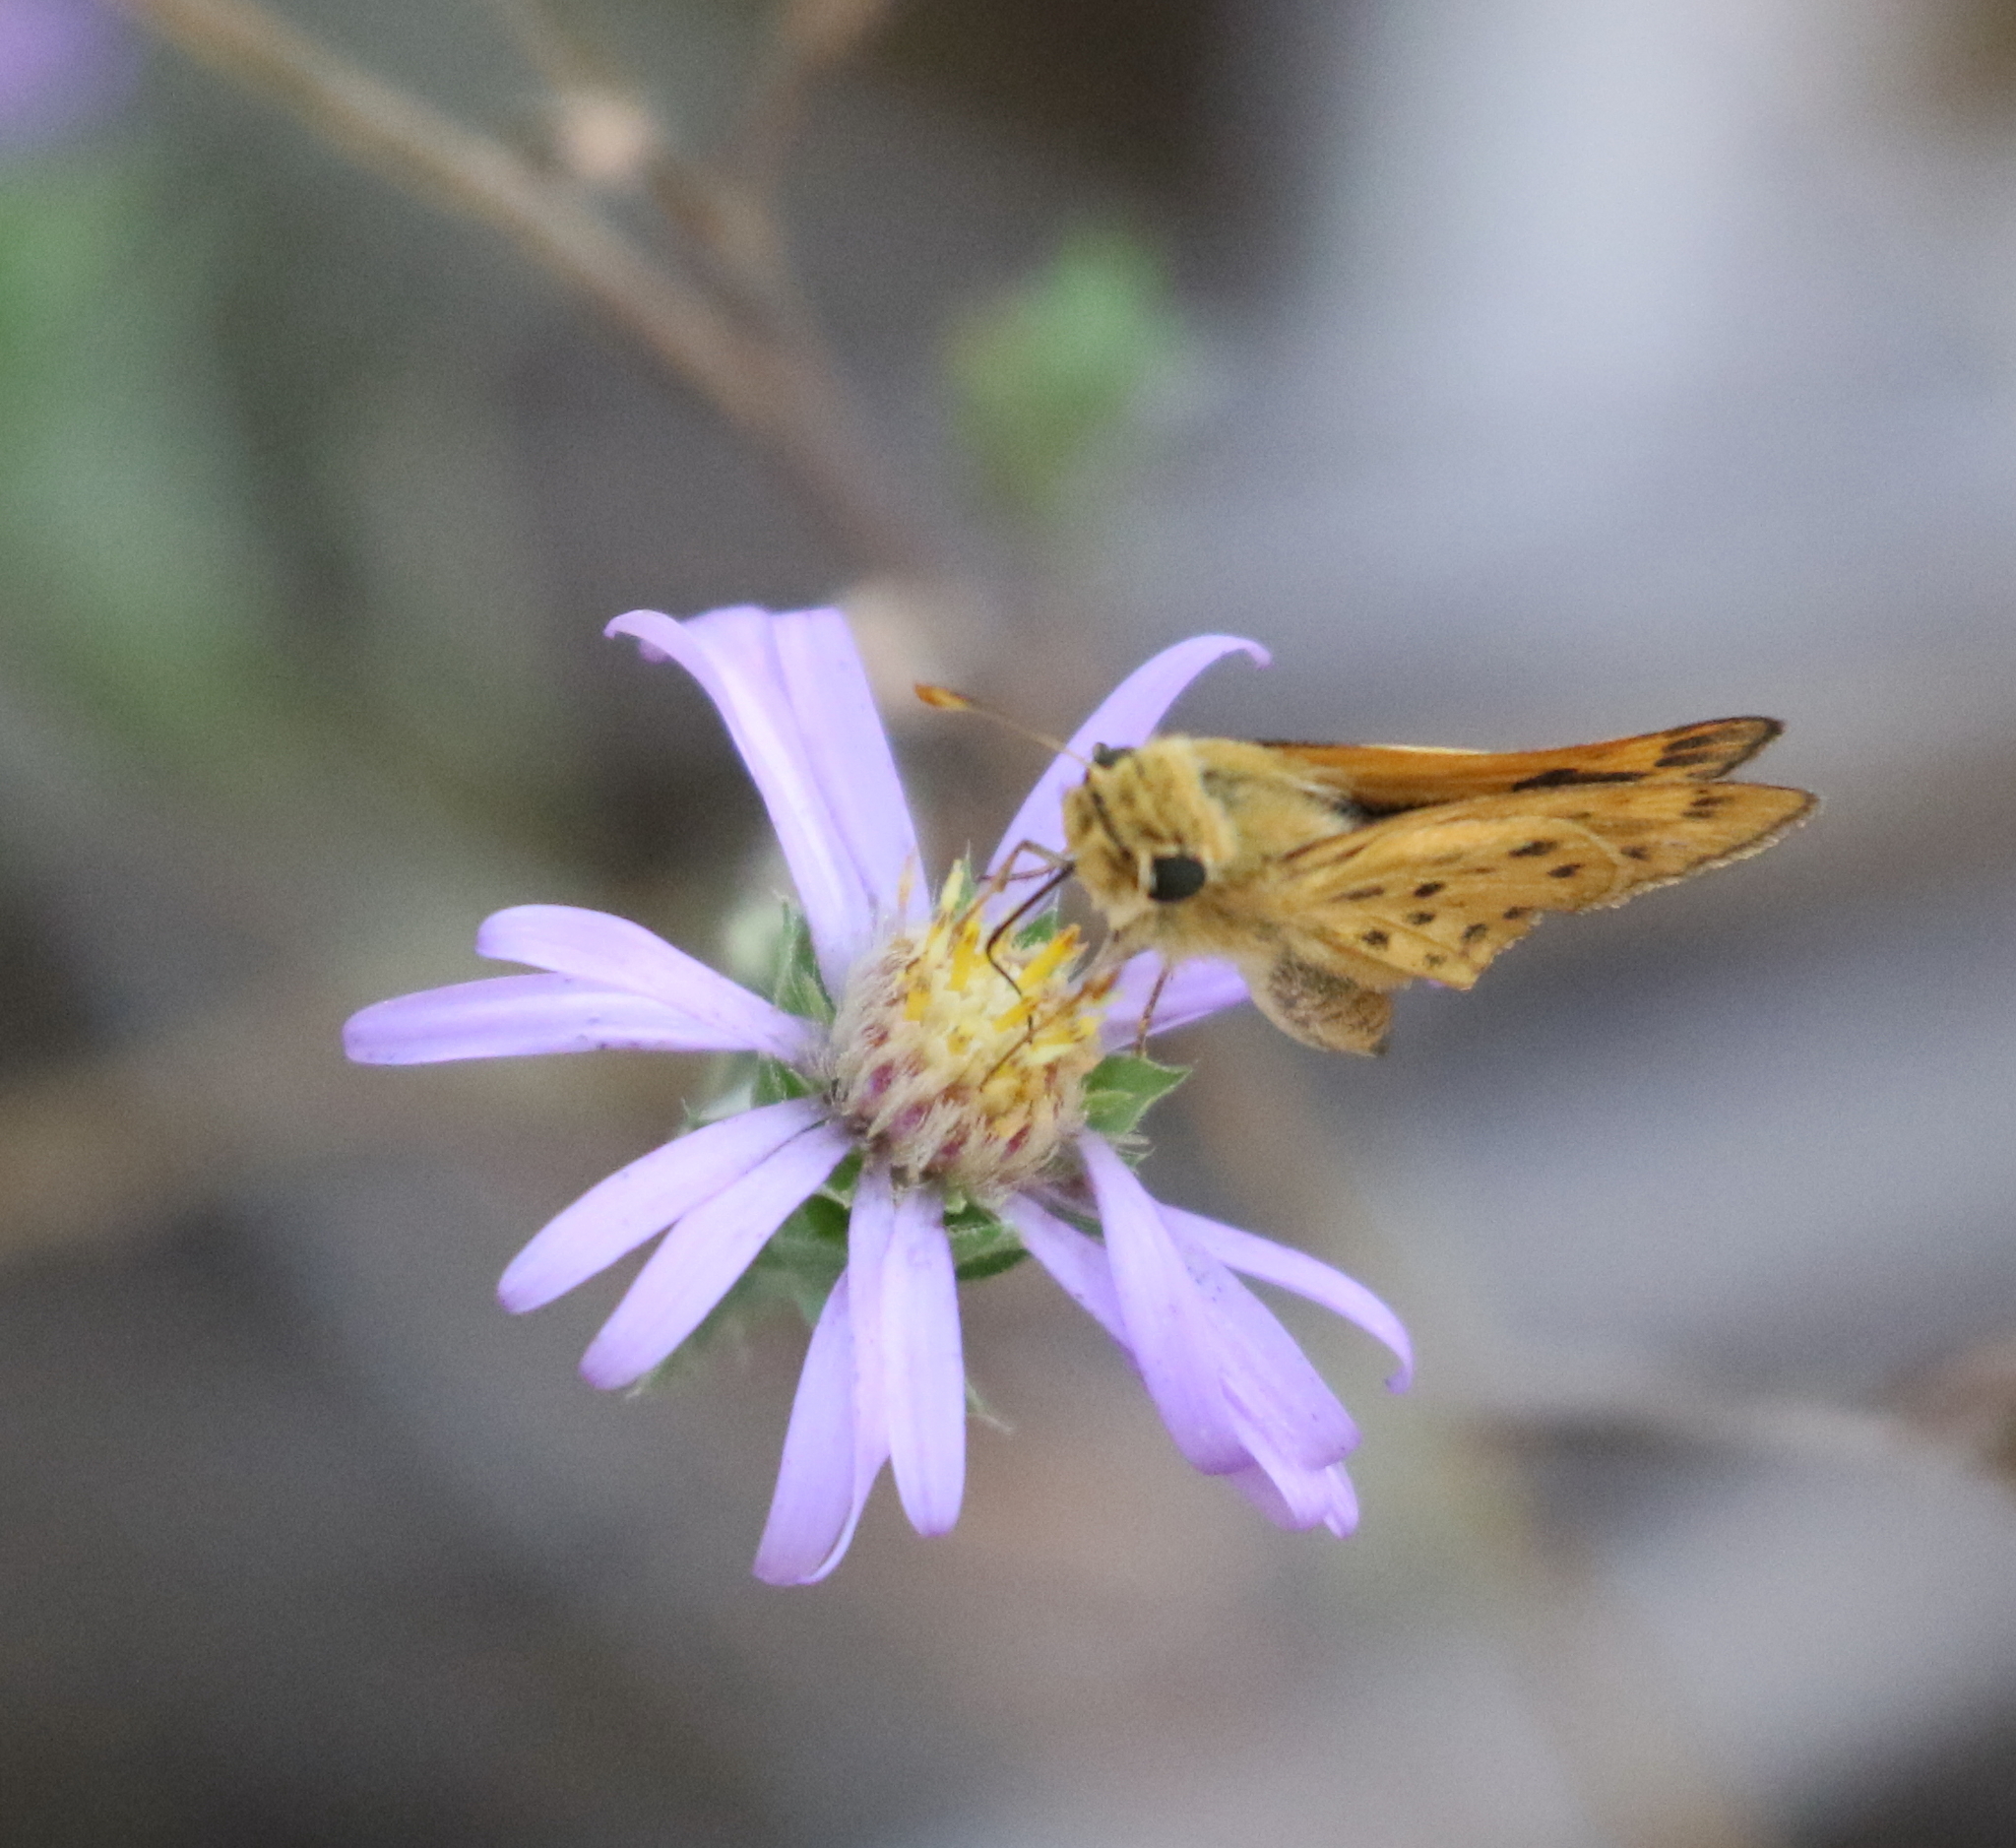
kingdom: Animalia
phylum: Arthropoda
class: Insecta
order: Lepidoptera
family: Hesperiidae
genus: Hylephila
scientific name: Hylephila phyleus
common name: Fiery skipper
